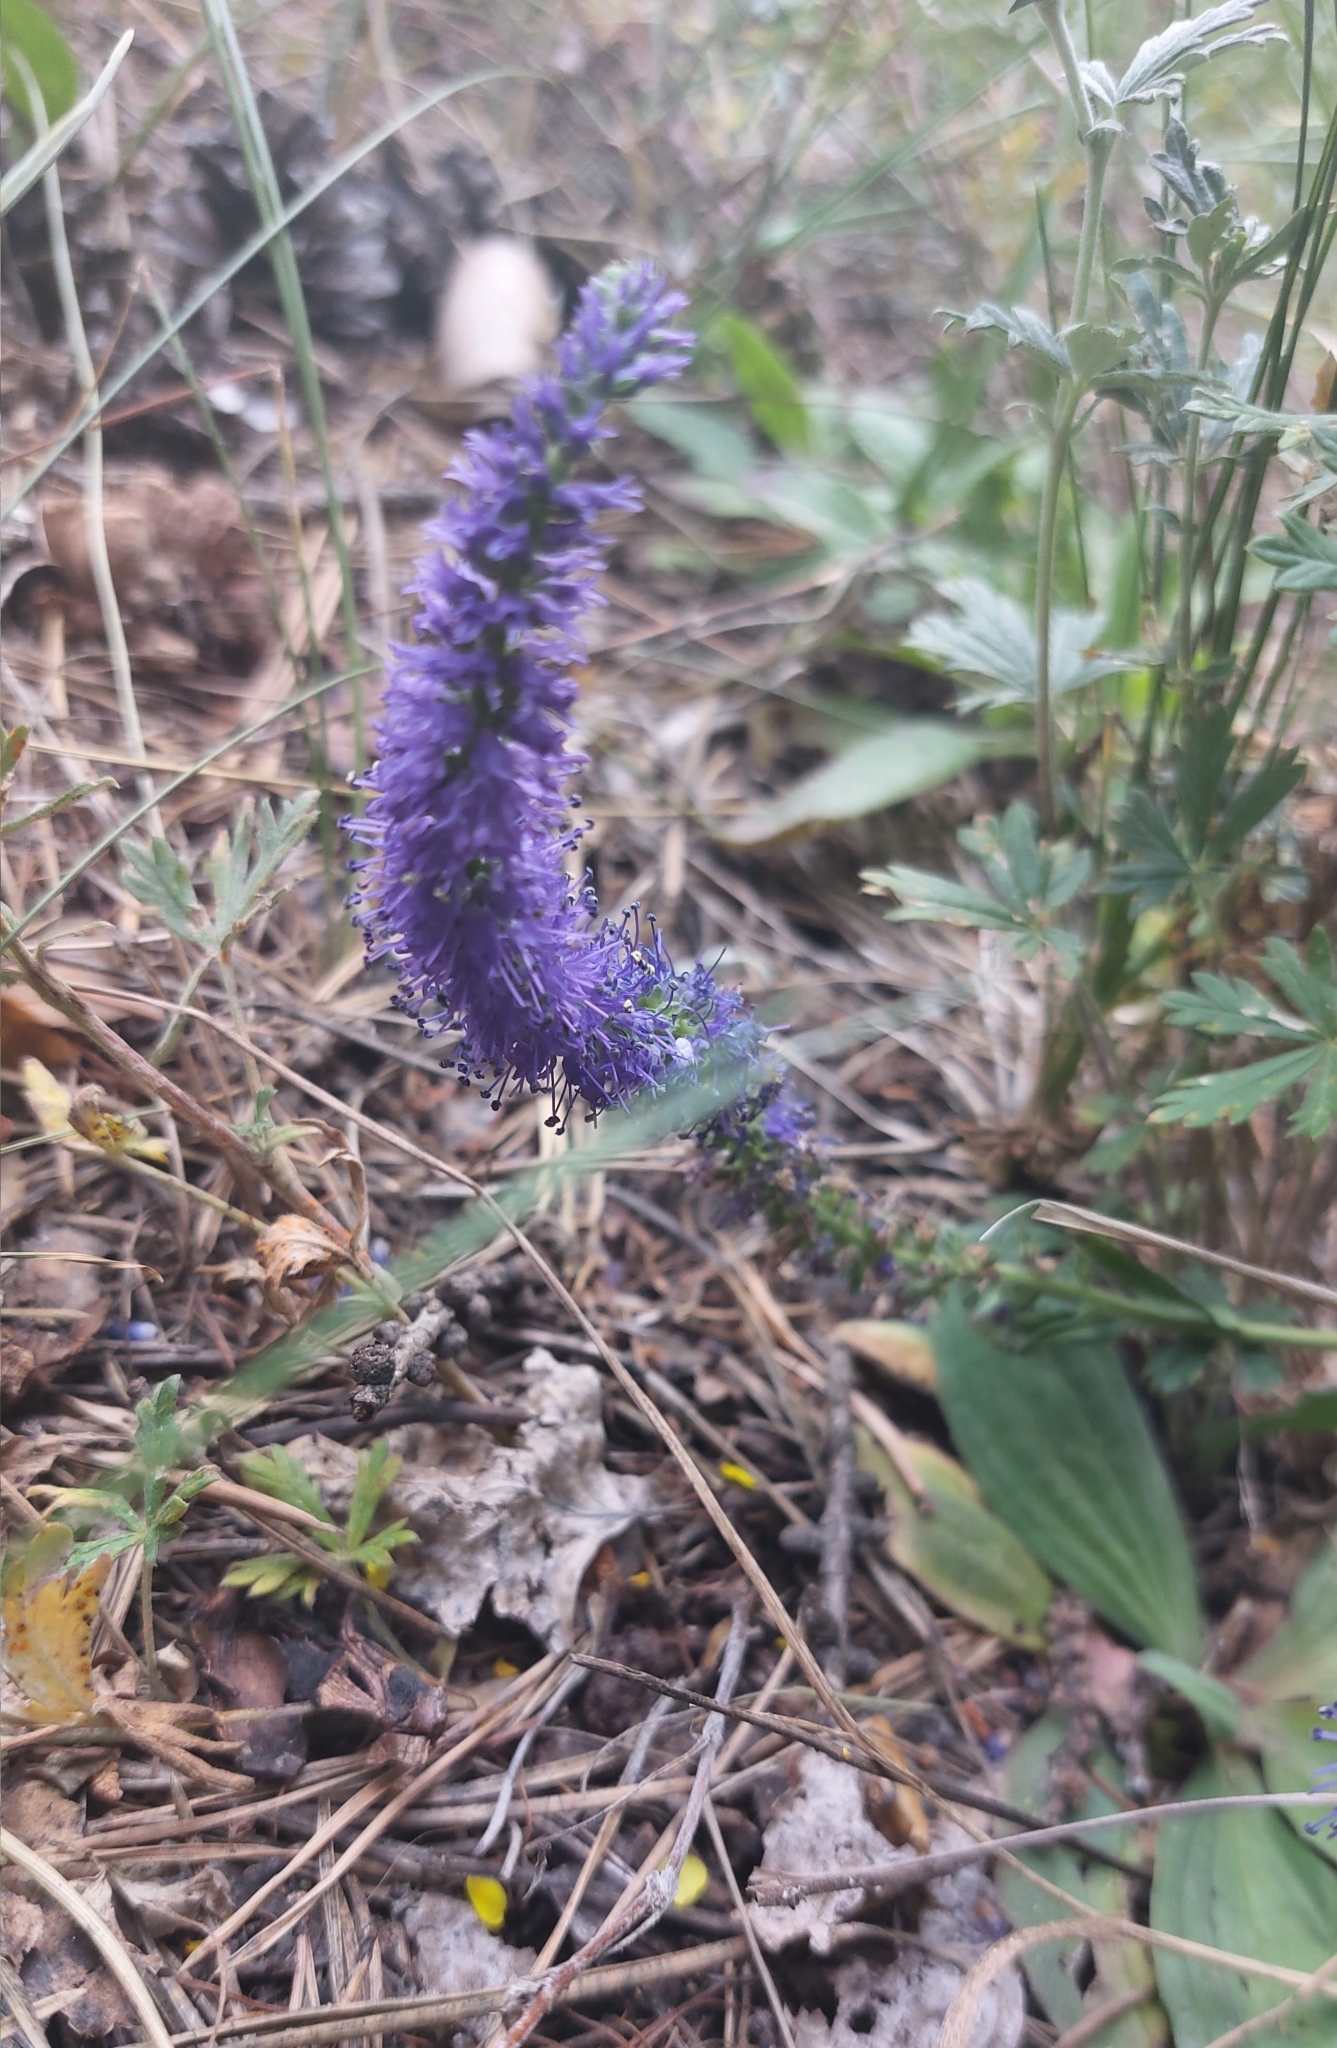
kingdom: Plantae
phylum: Tracheophyta
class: Magnoliopsida
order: Lamiales
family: Plantaginaceae
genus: Veronica
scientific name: Veronica spicata
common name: Spiked speedwell
